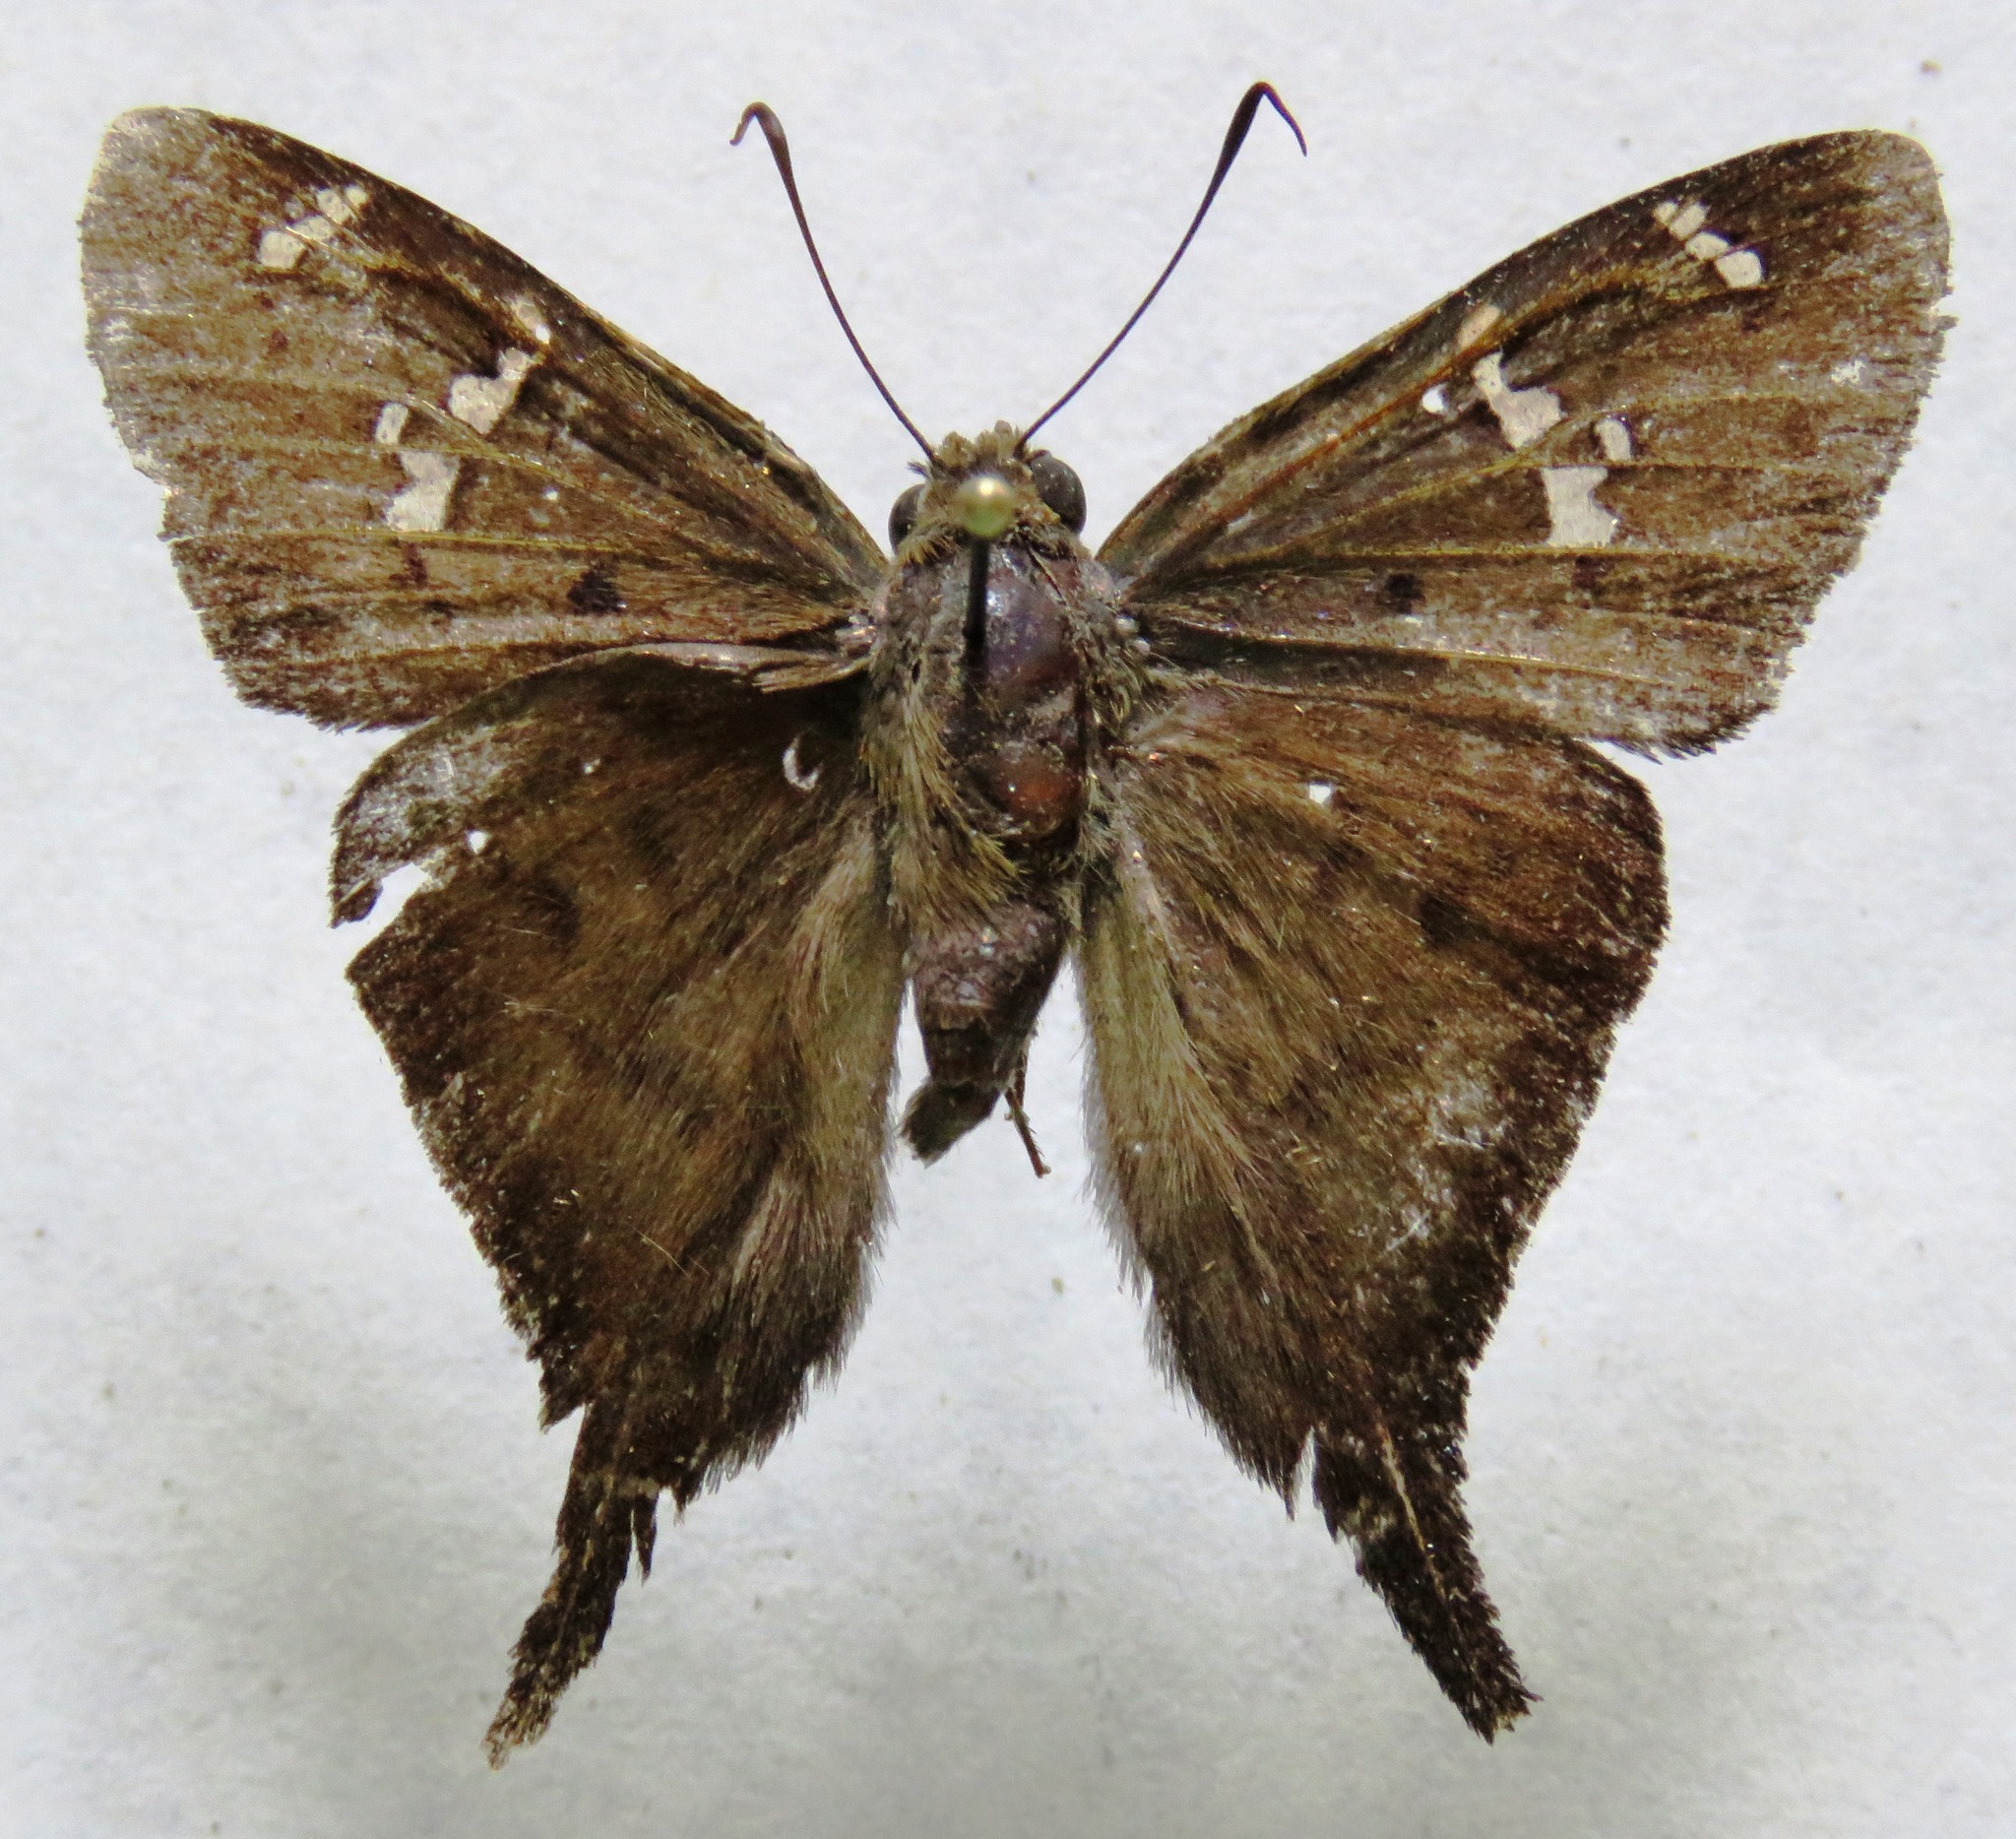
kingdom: Animalia
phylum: Arthropoda
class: Insecta
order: Lepidoptera
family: Hesperiidae
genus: Ectomis
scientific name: Ectomis
